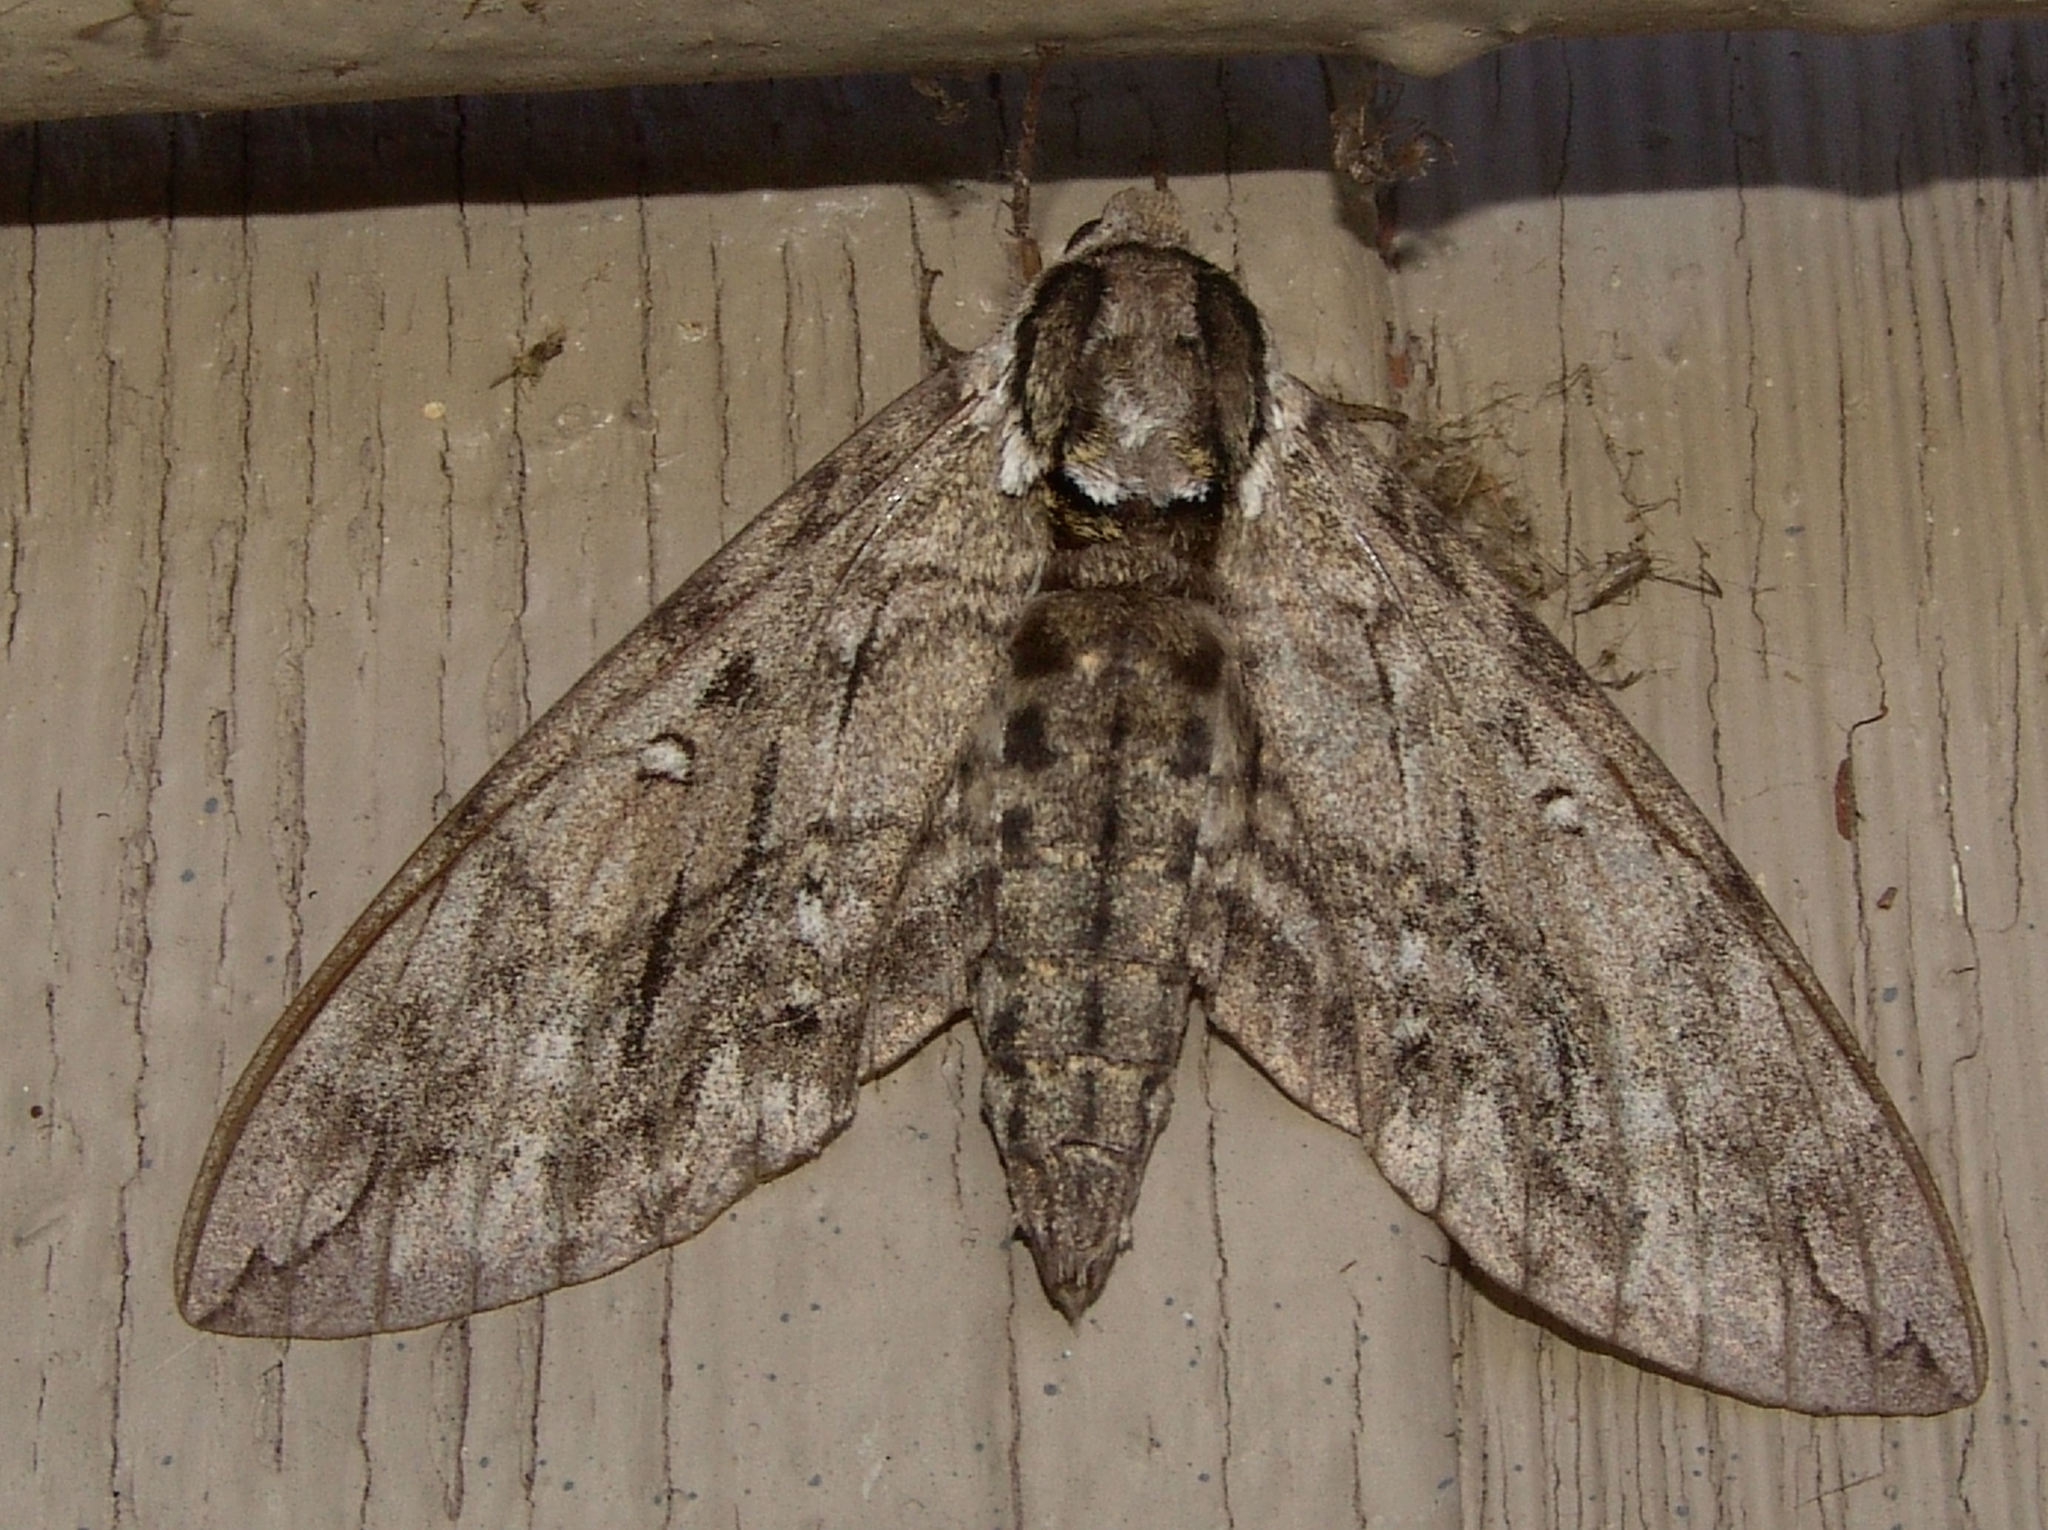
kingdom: Animalia
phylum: Arthropoda
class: Insecta
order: Lepidoptera
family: Sphingidae
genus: Ceratomia
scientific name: Ceratomia undulosa
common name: Waved sphinx
